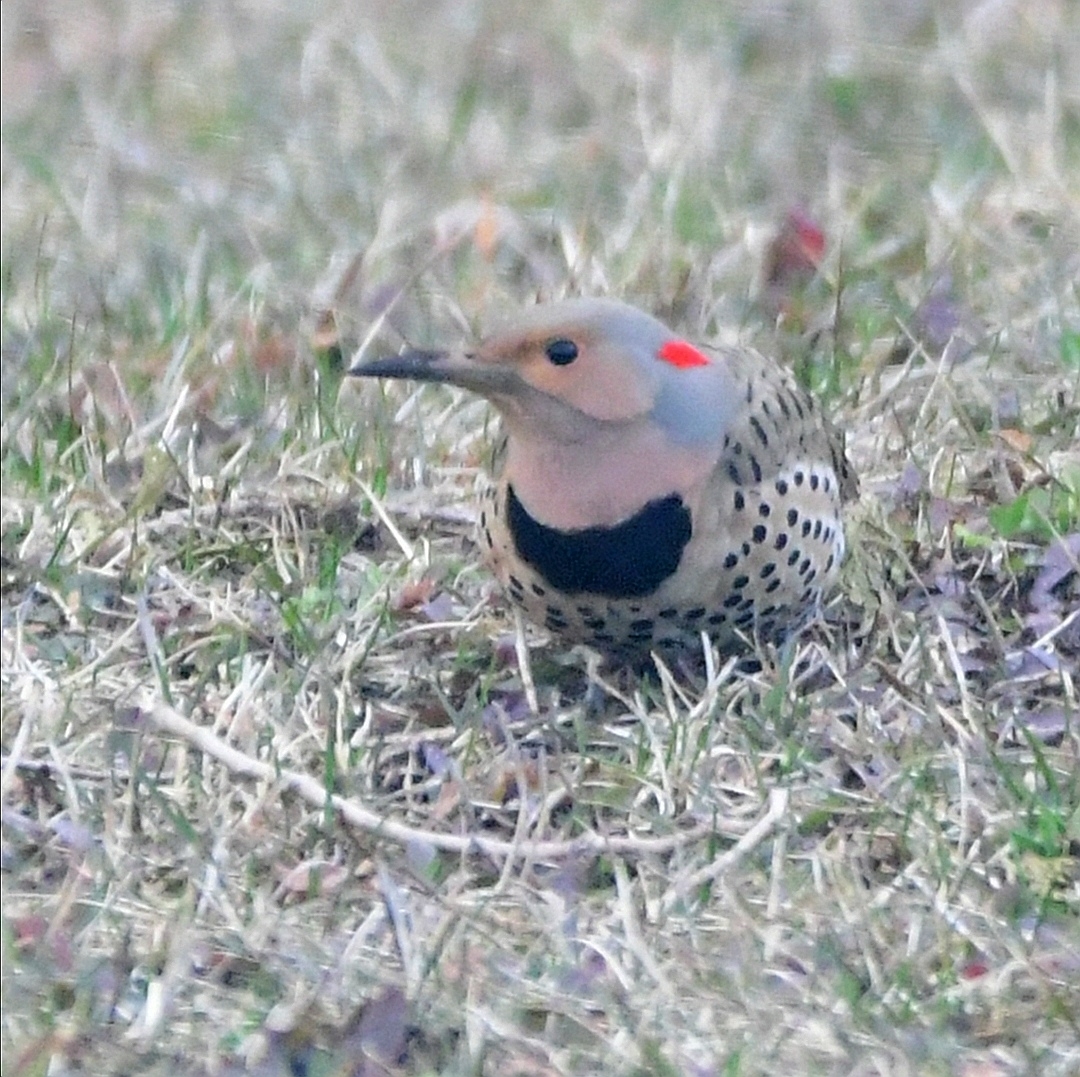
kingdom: Animalia
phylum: Chordata
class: Aves
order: Piciformes
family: Picidae
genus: Colaptes
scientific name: Colaptes auratus
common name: Northern flicker
